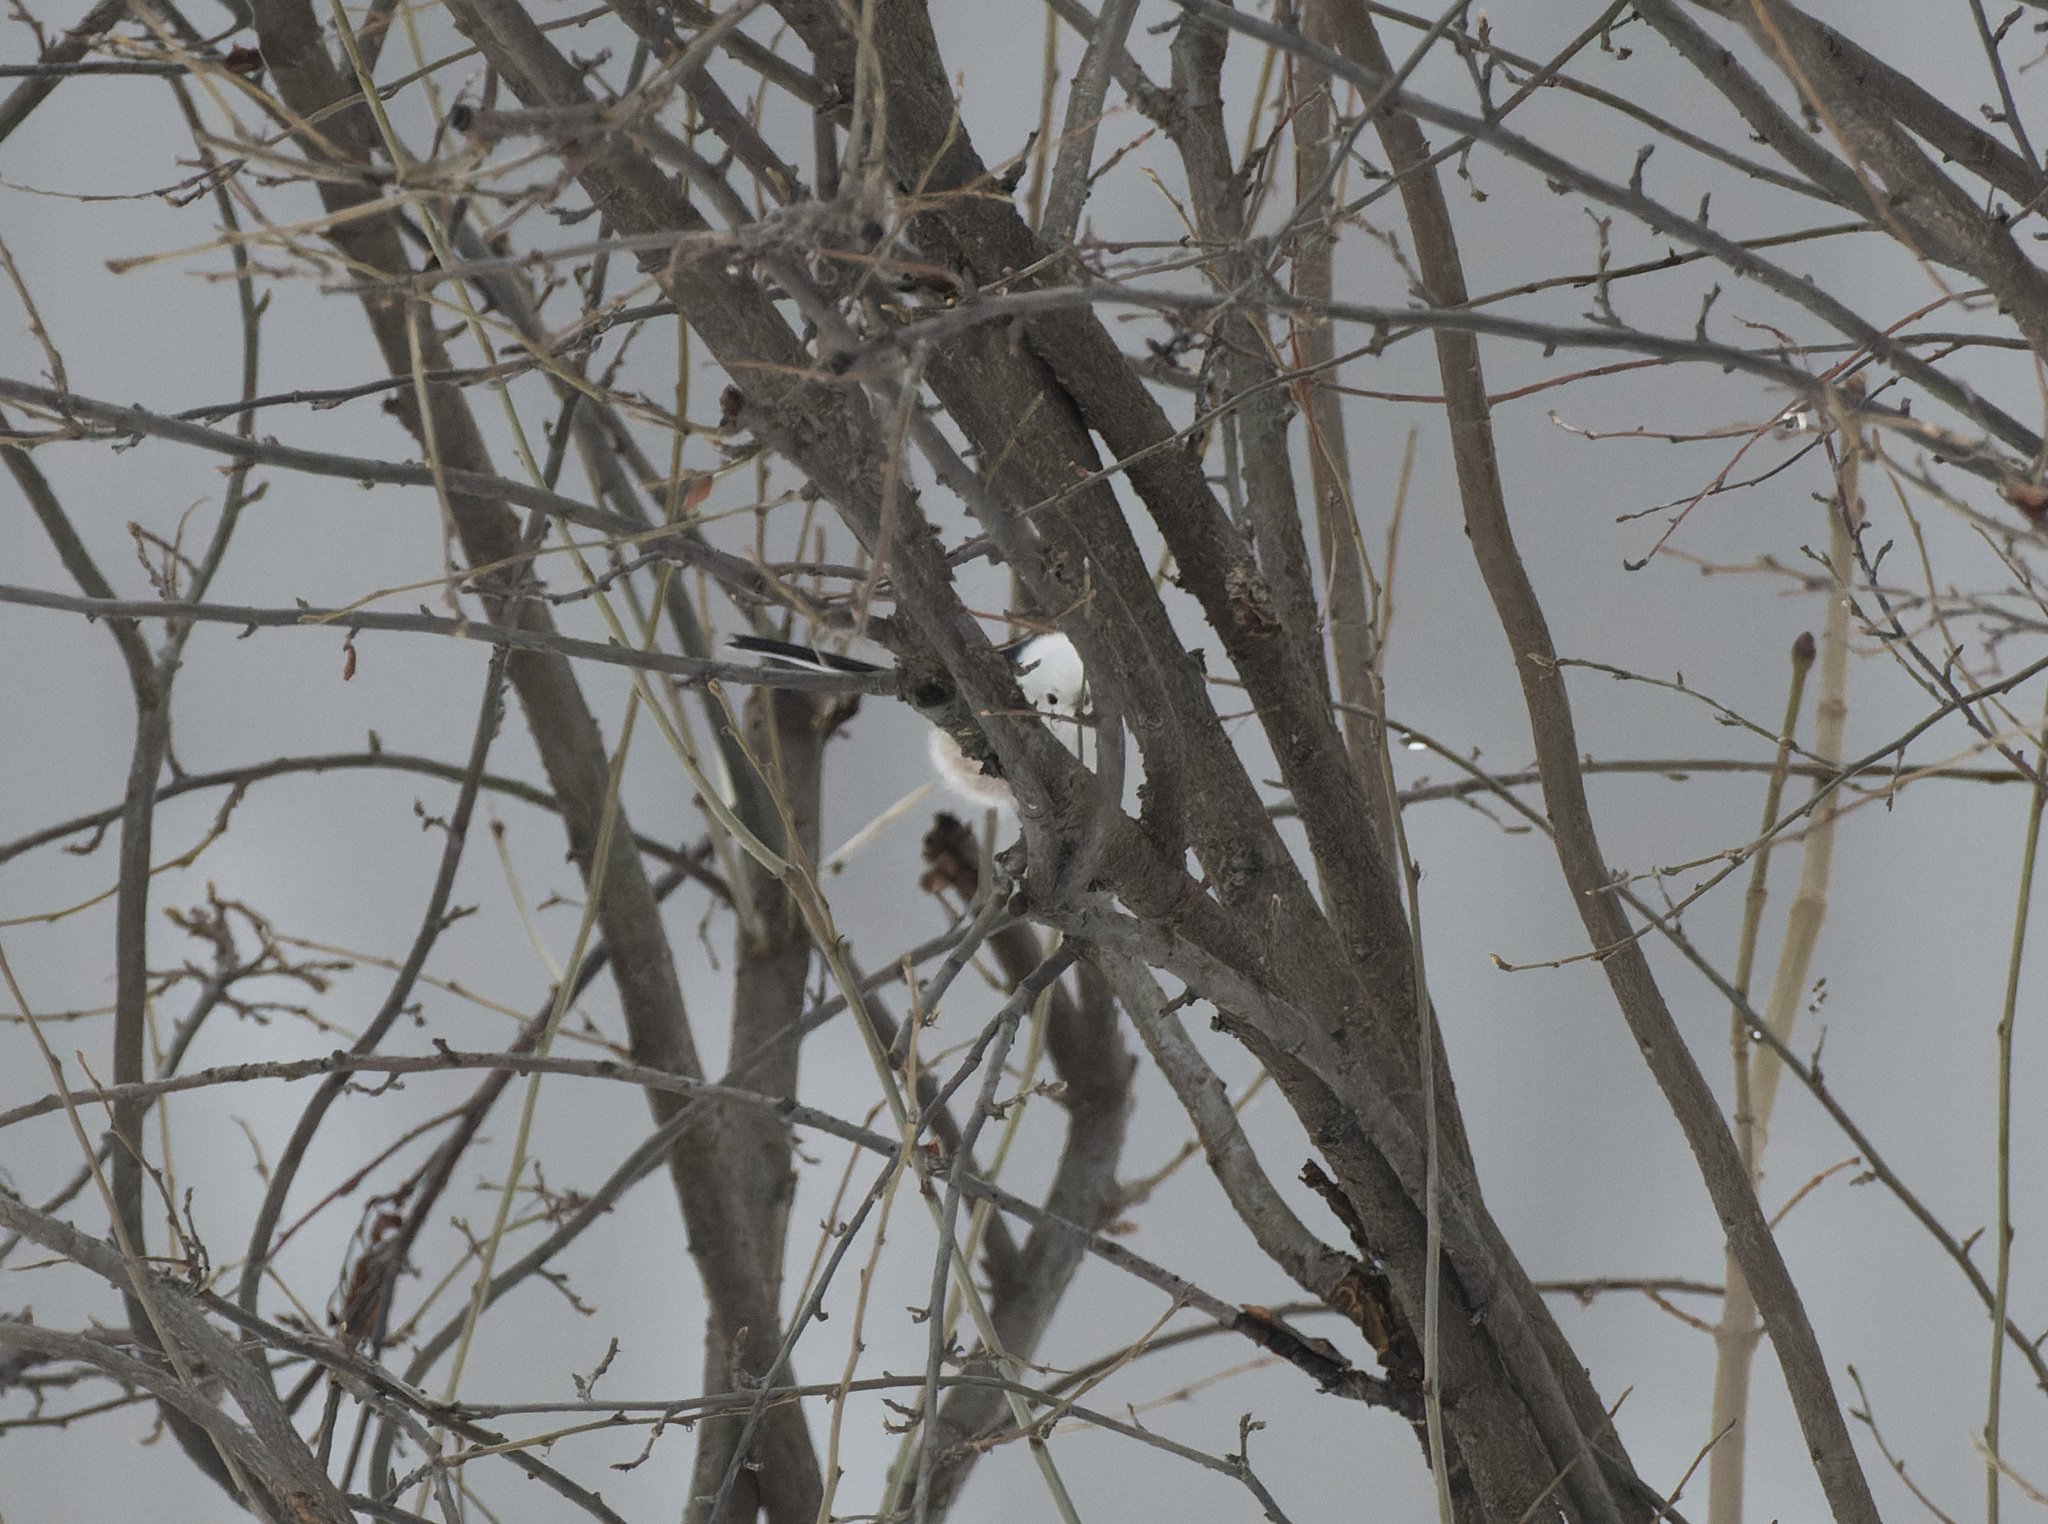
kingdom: Animalia
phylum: Chordata
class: Aves
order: Passeriformes
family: Aegithalidae
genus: Aegithalos
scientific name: Aegithalos caudatus
